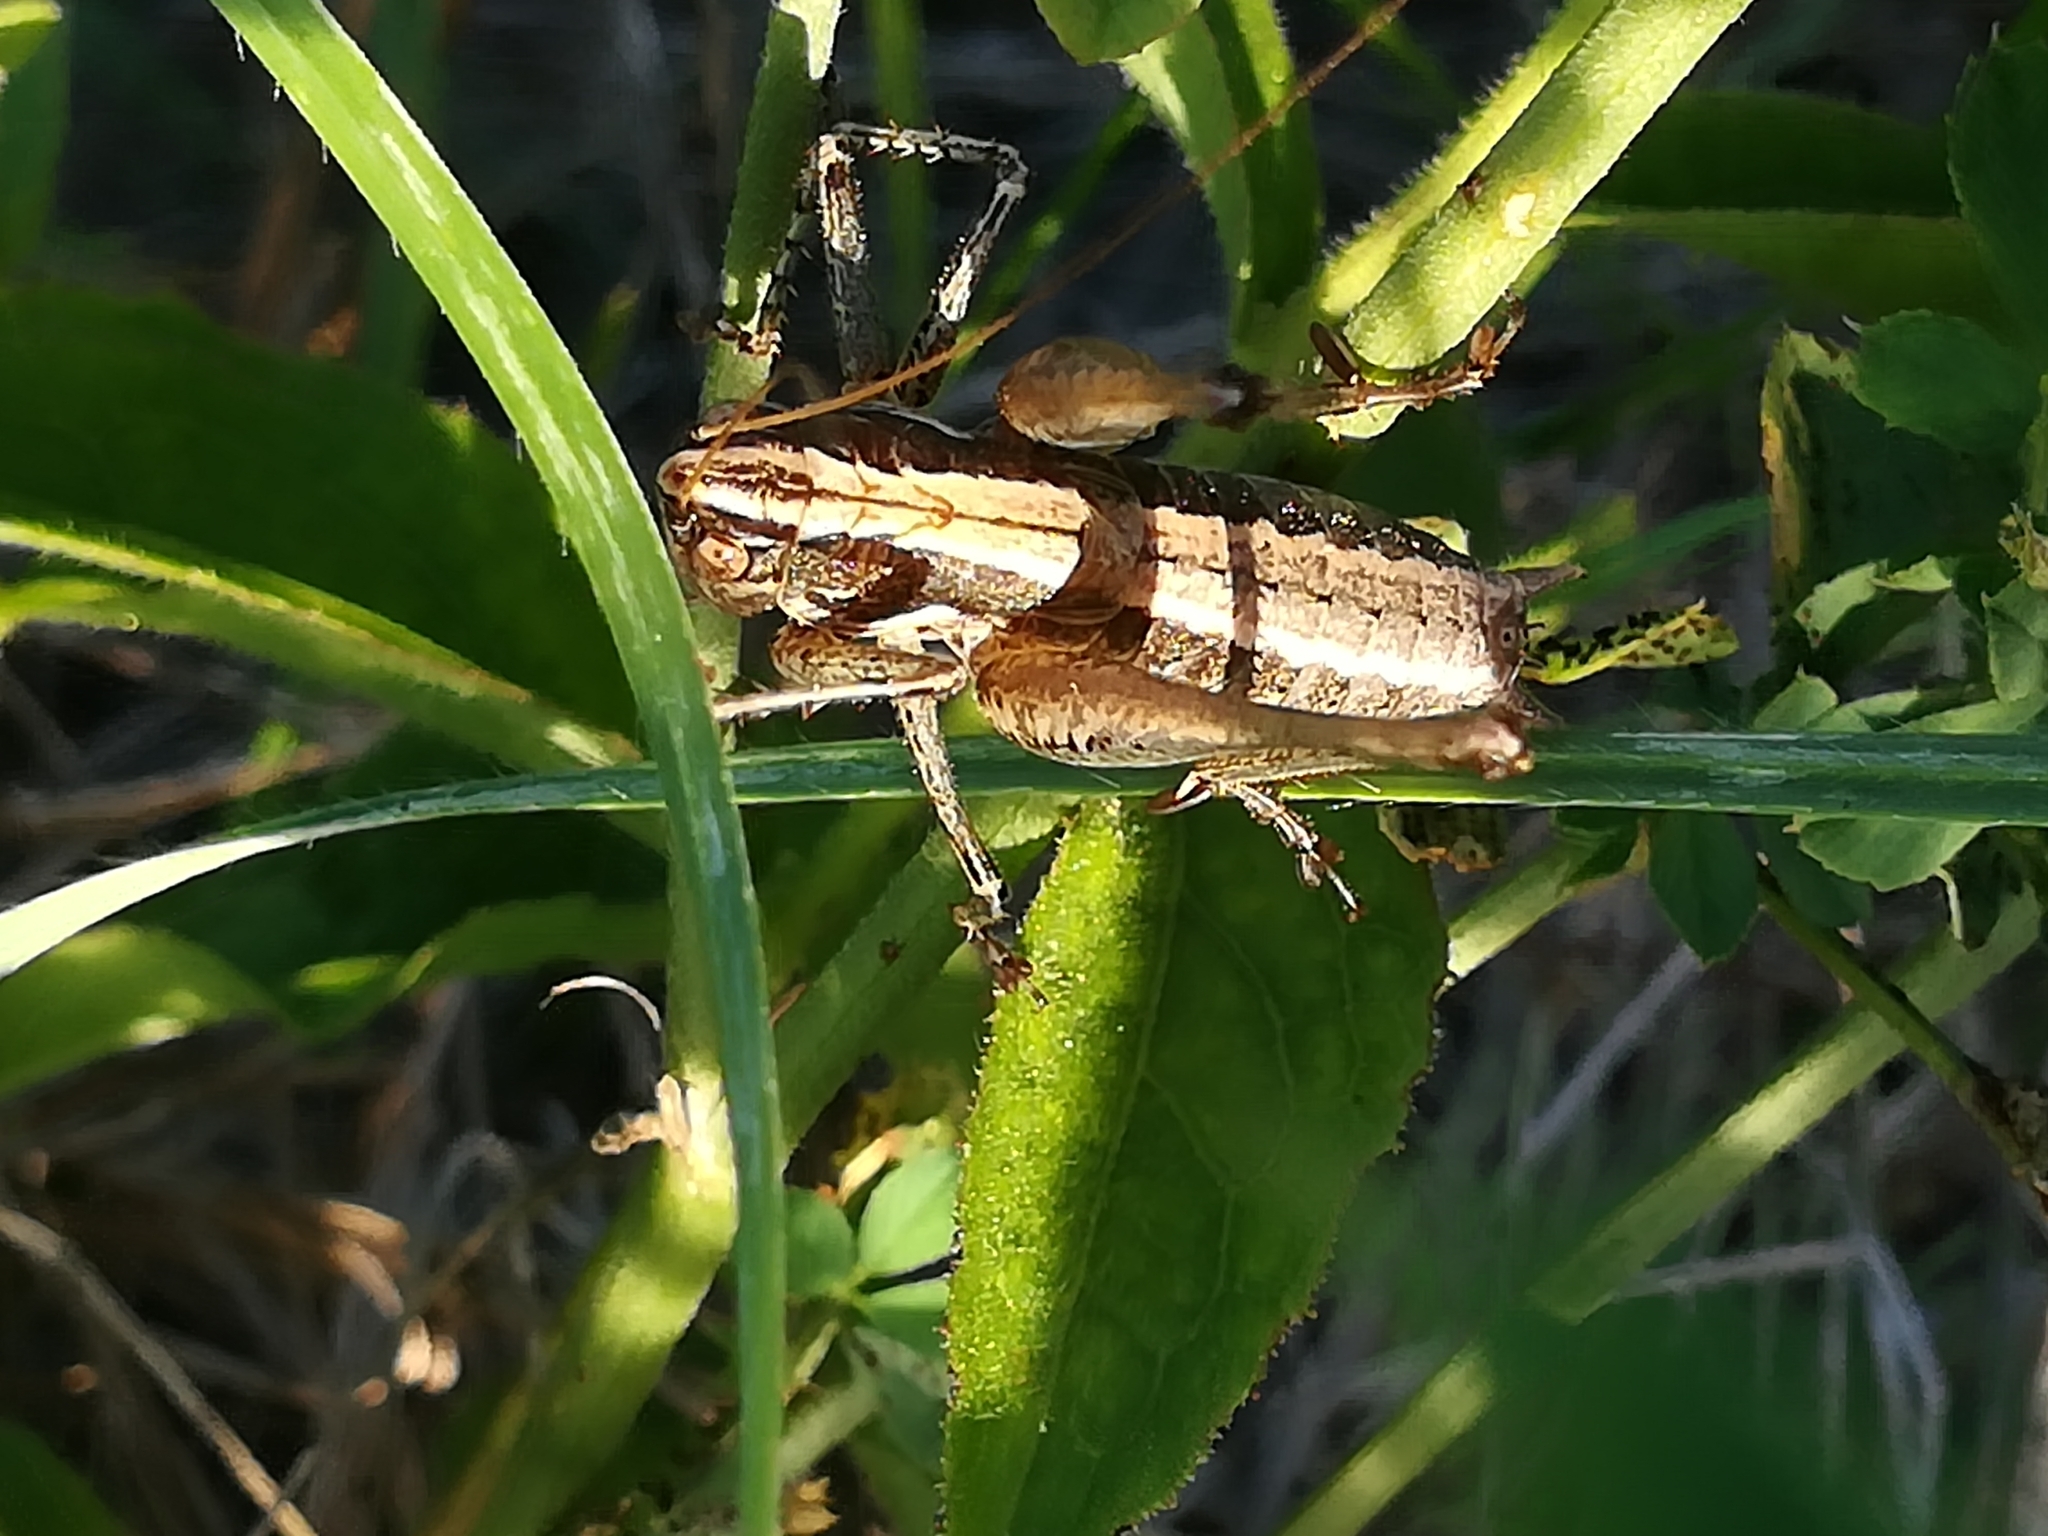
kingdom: Animalia
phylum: Arthropoda
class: Insecta
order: Orthoptera
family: Tettigoniidae
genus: Rhacocleis
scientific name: Rhacocleis germanica
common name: Mediterranean bush-cricket
